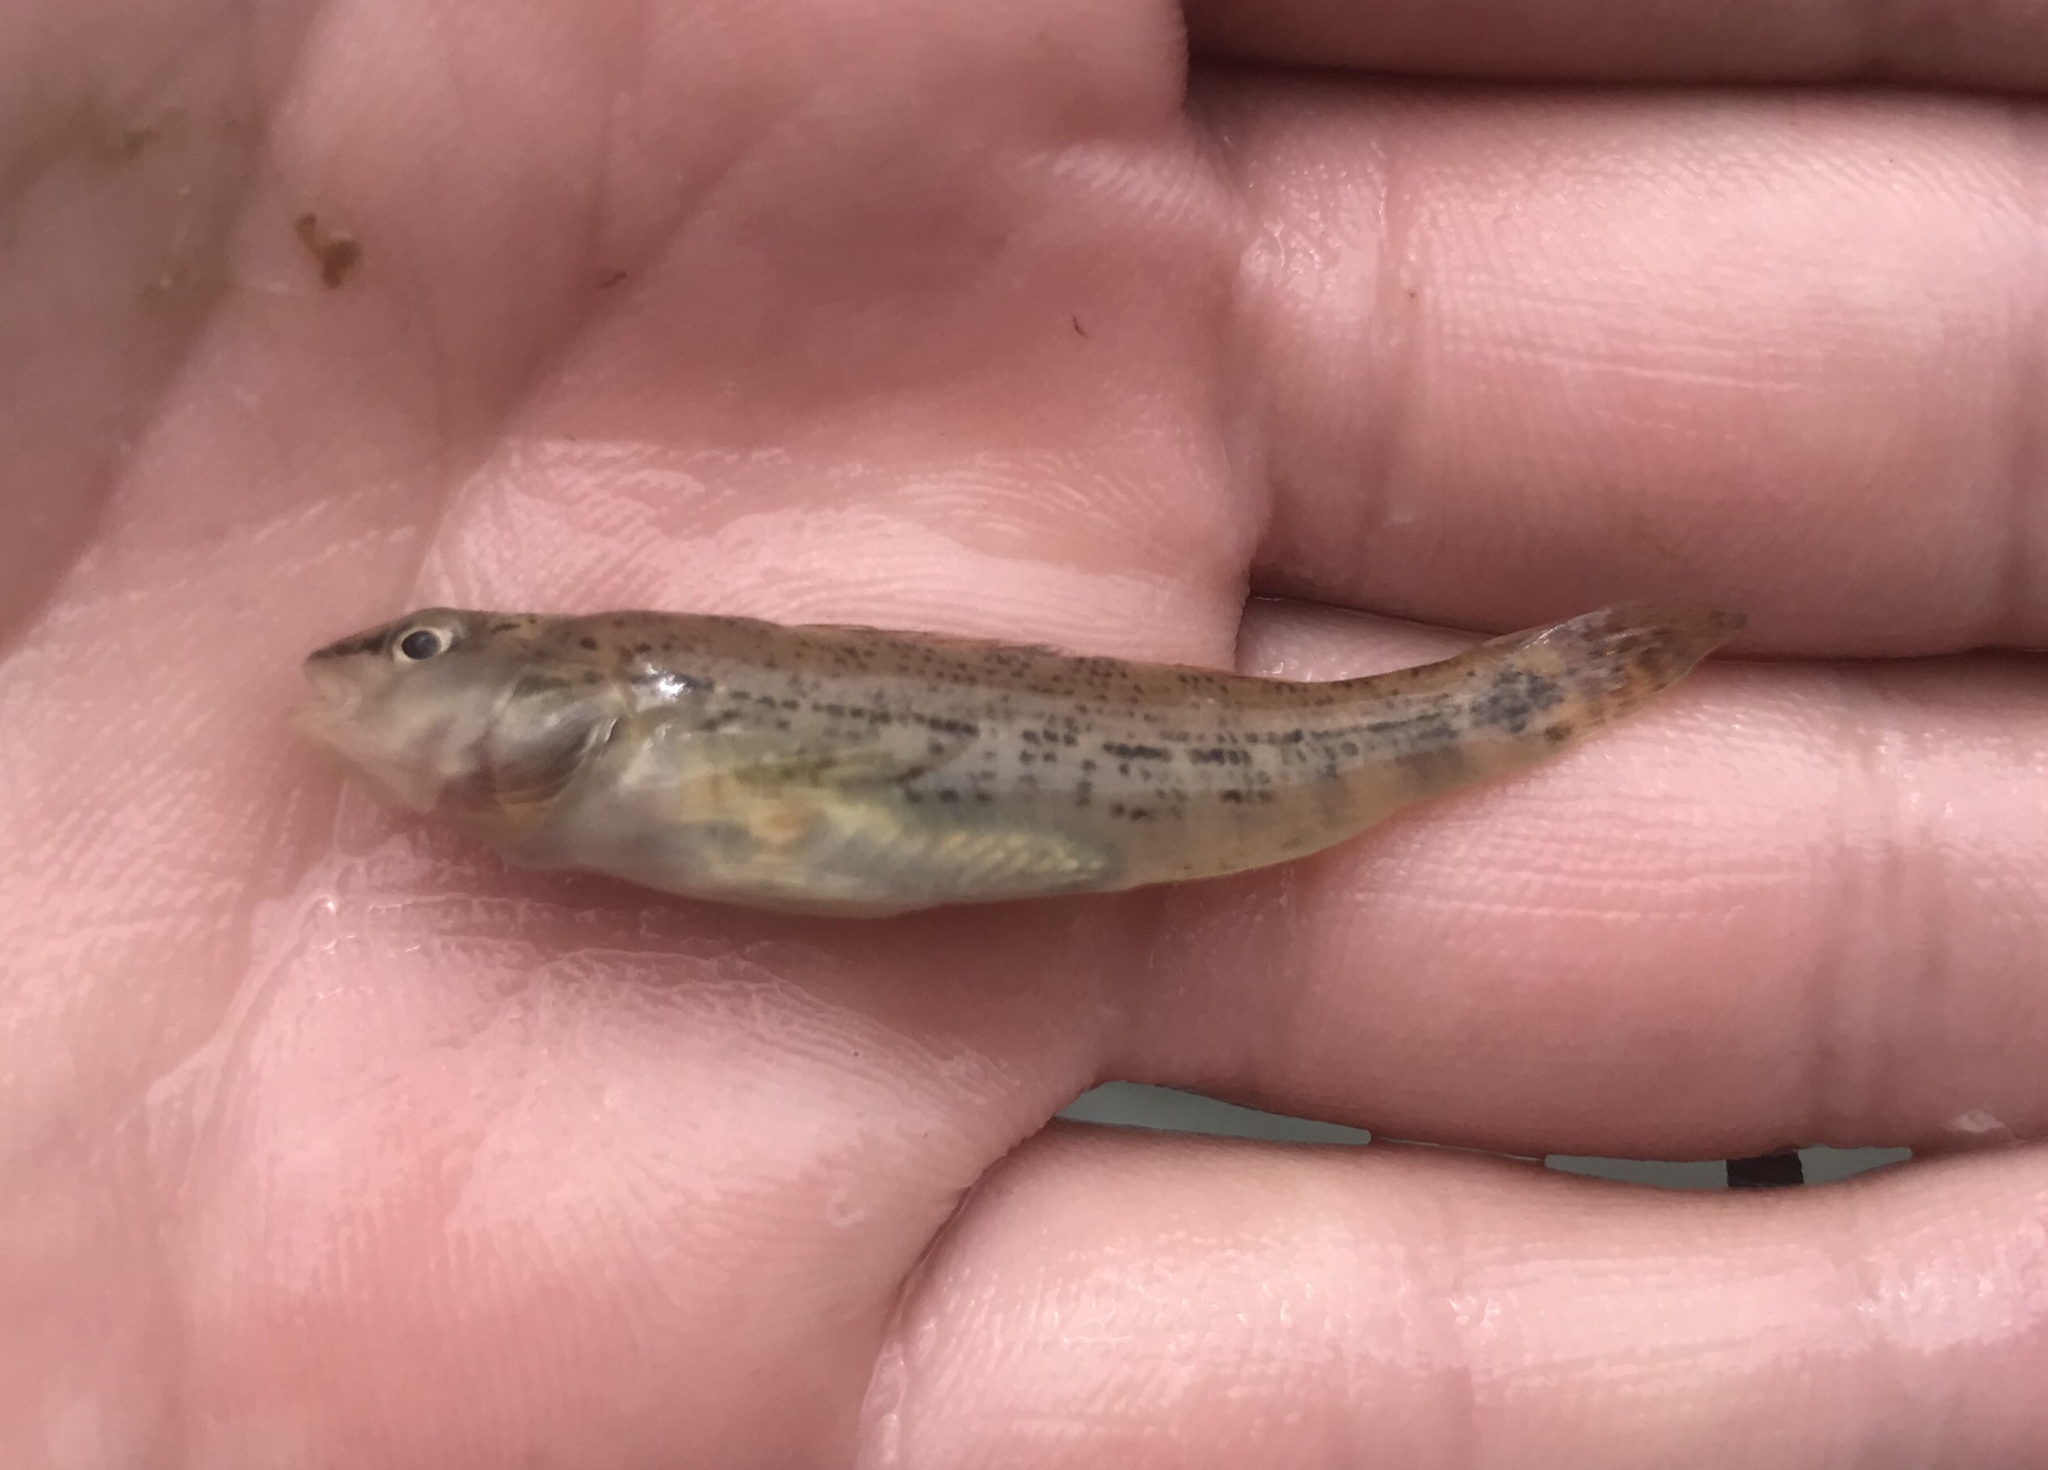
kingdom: Animalia
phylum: Chordata
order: Perciformes
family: Percidae
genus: Etheostoma
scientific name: Etheostoma spectabile
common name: Orangethroat darter
